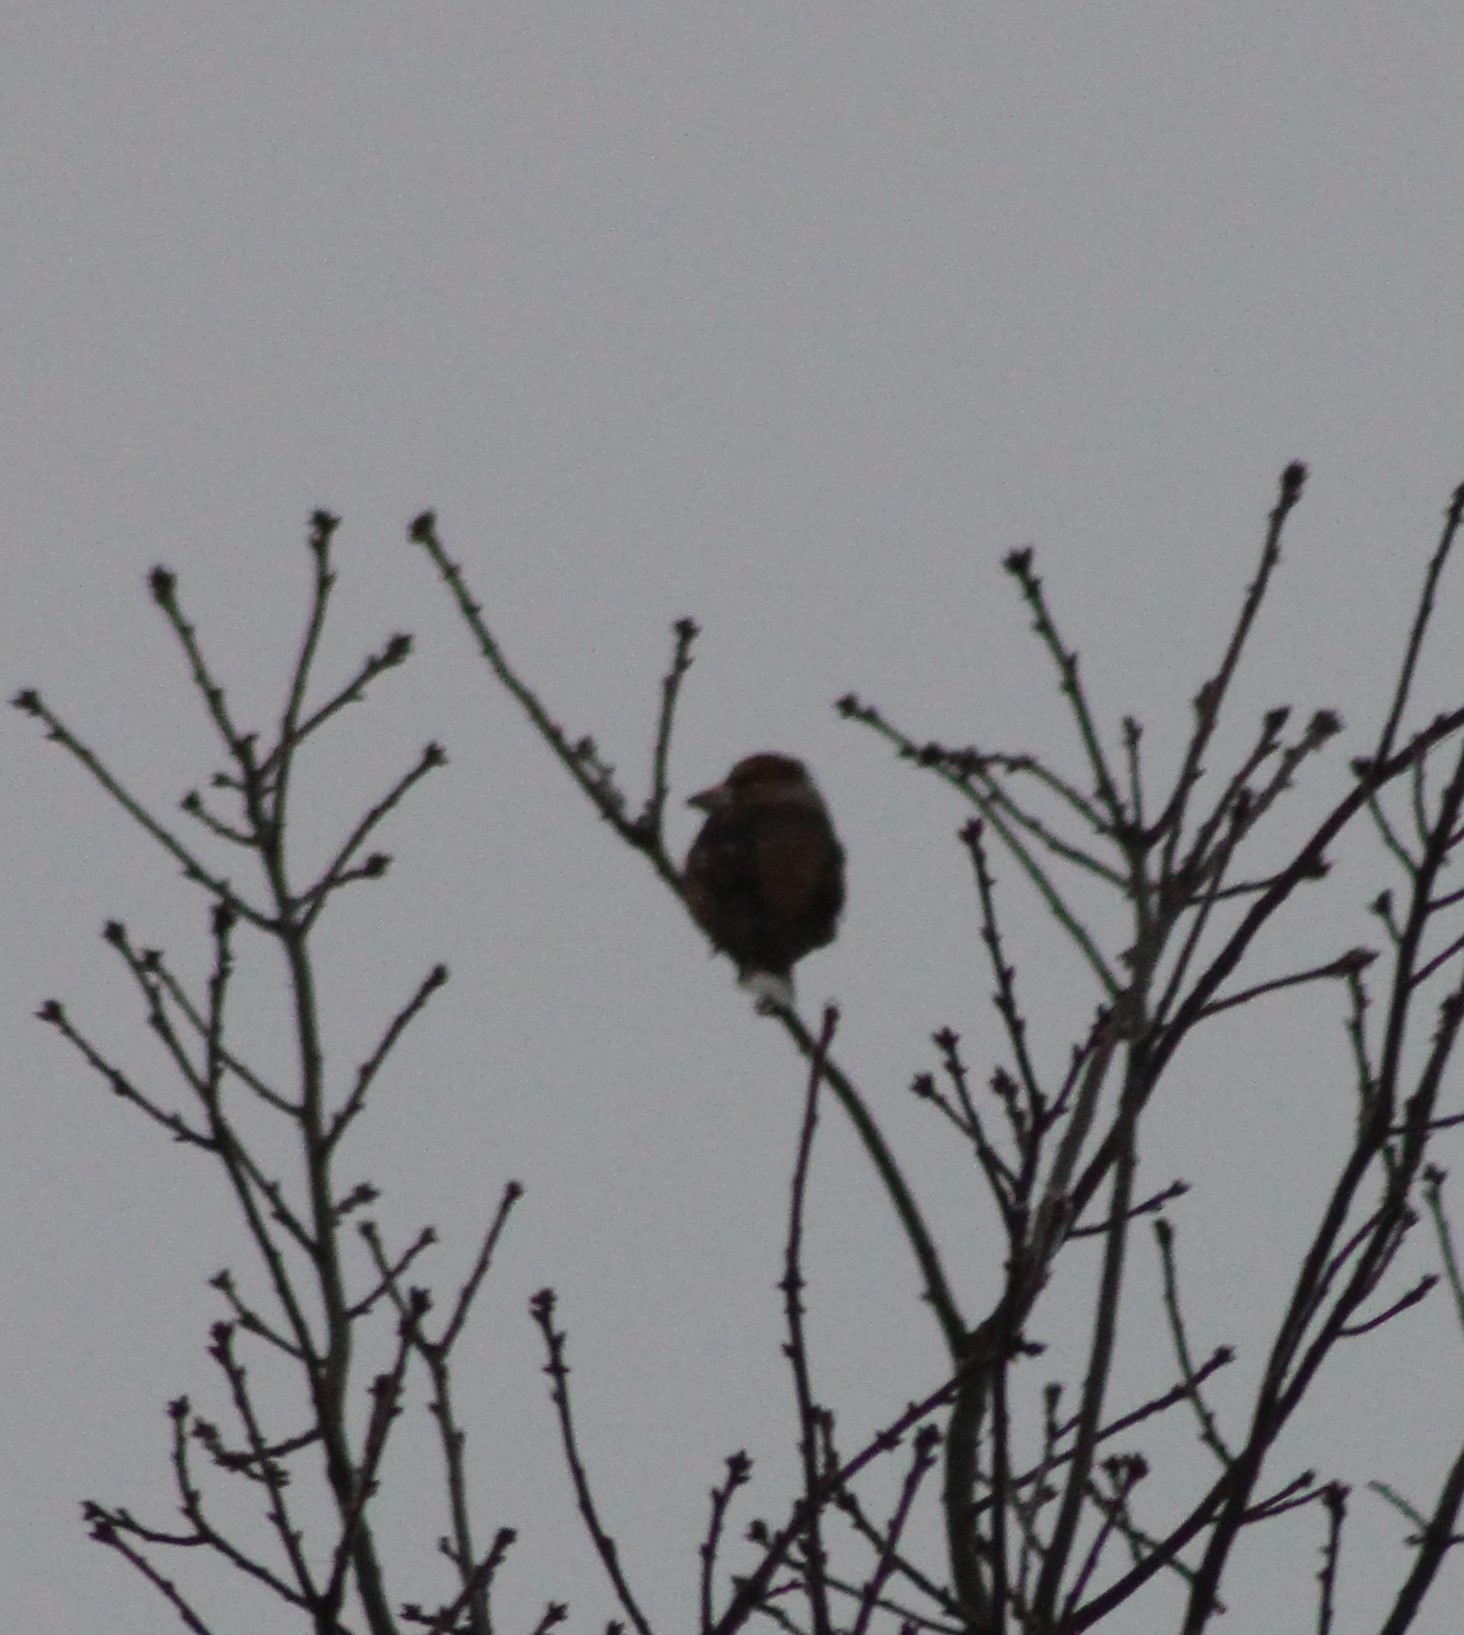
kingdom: Animalia
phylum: Chordata
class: Aves
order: Passeriformes
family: Fringillidae
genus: Coccothraustes
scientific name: Coccothraustes coccothraustes
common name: Hawfinch
